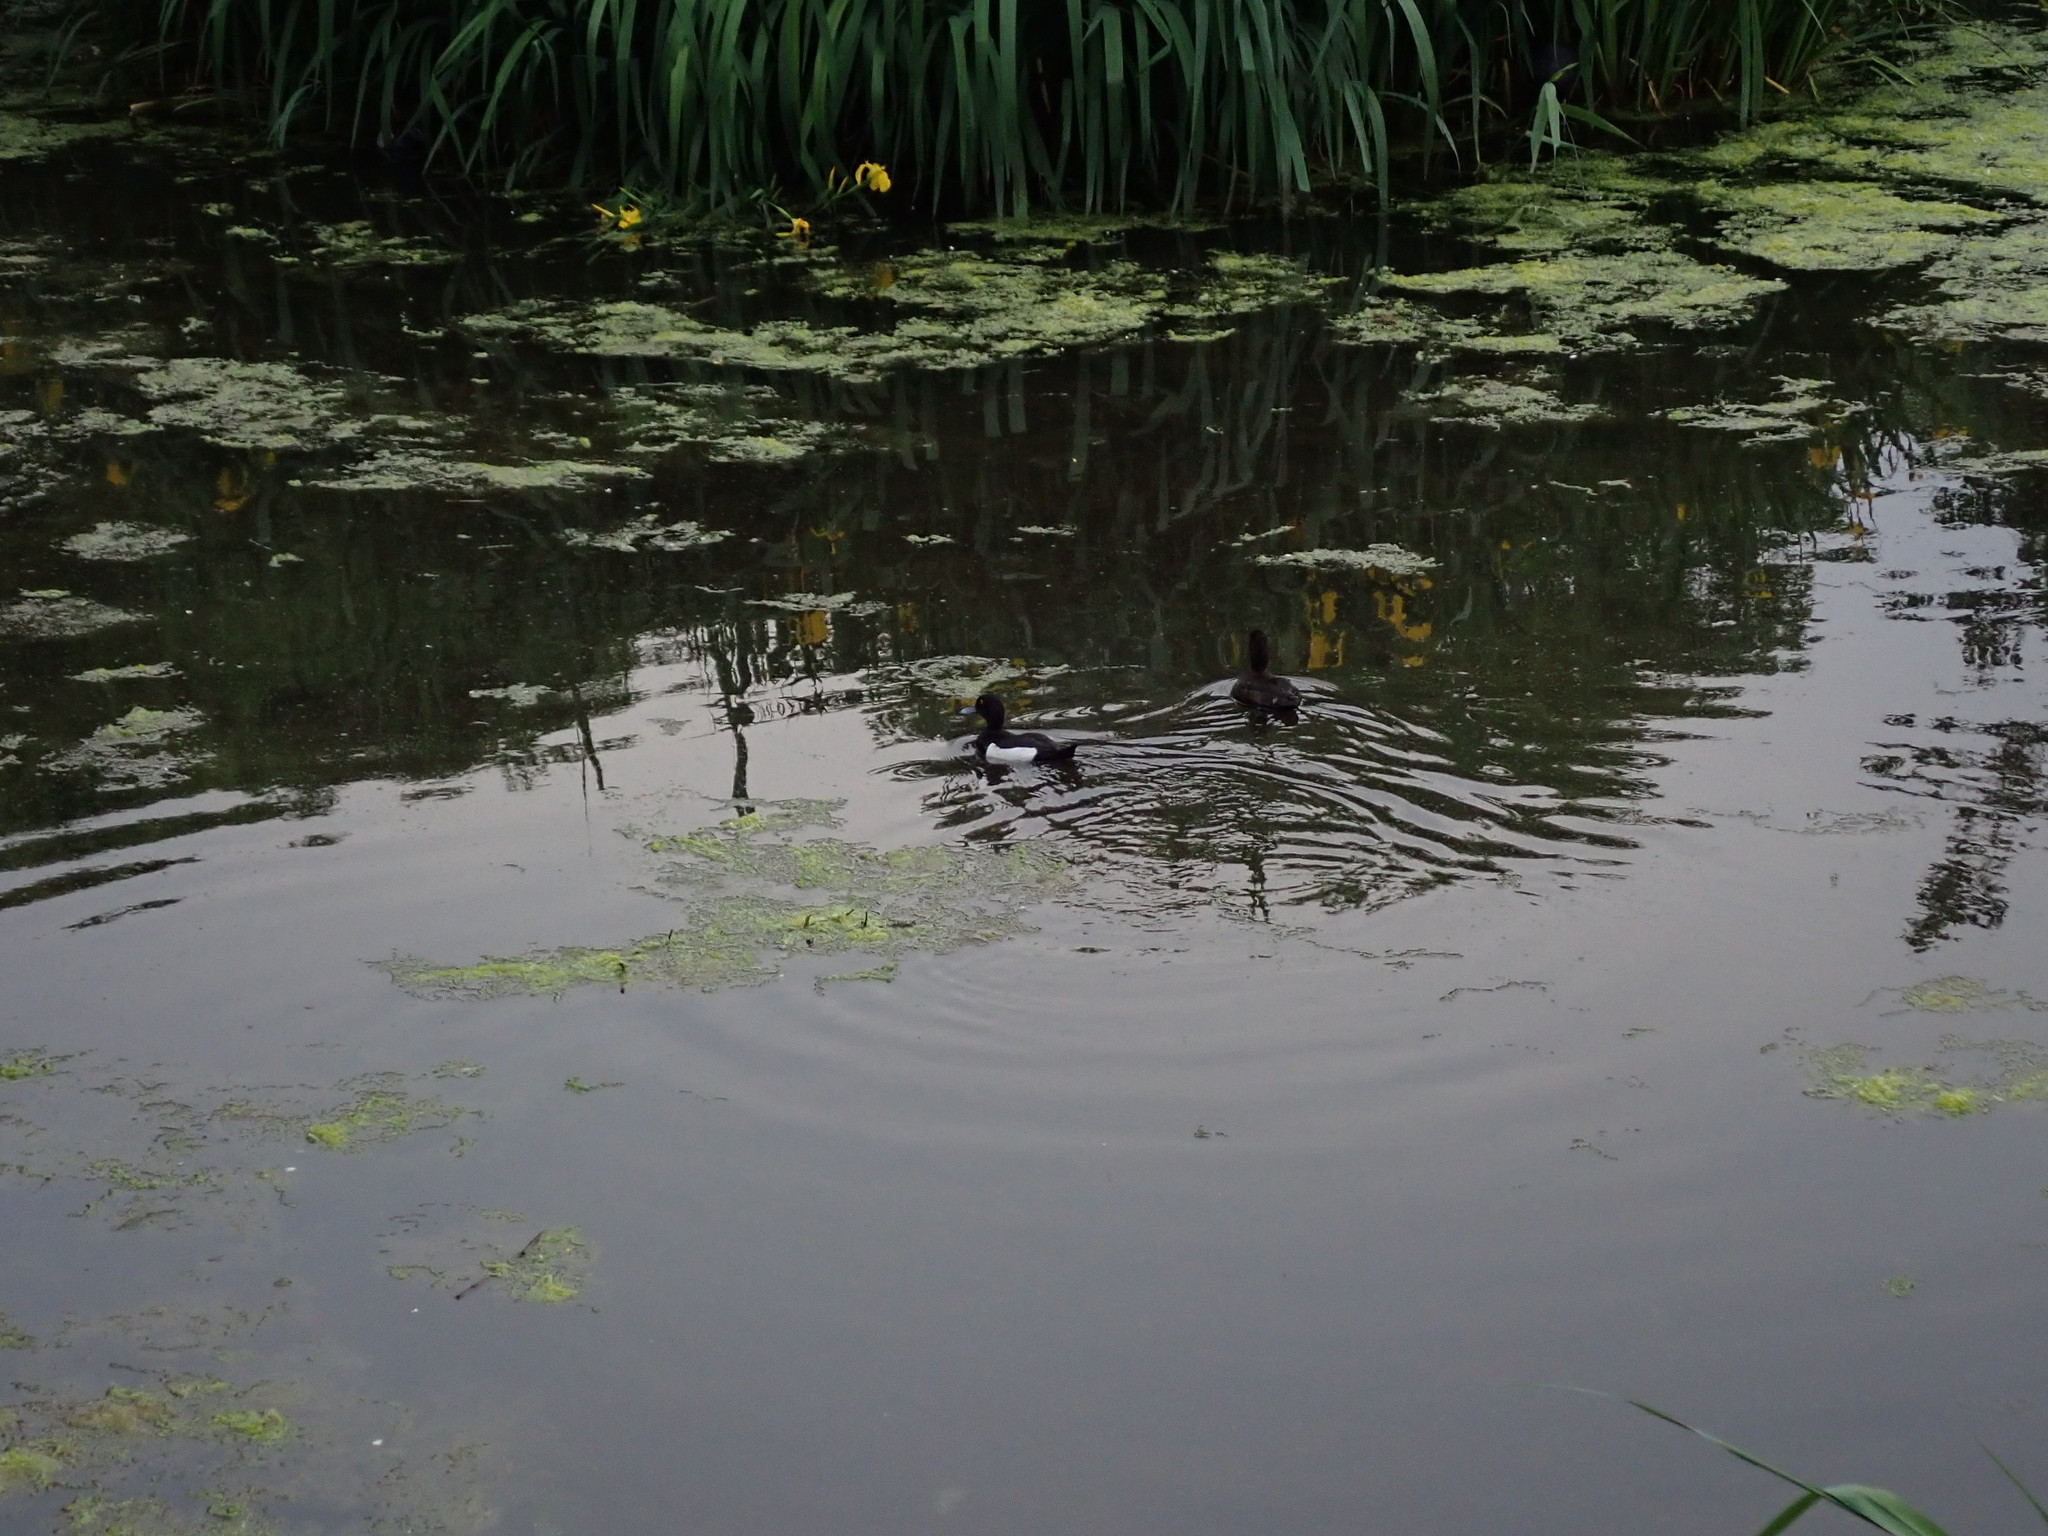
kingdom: Animalia
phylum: Chordata
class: Aves
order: Anseriformes
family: Anatidae
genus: Aythya
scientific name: Aythya fuligula
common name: Tufted duck
